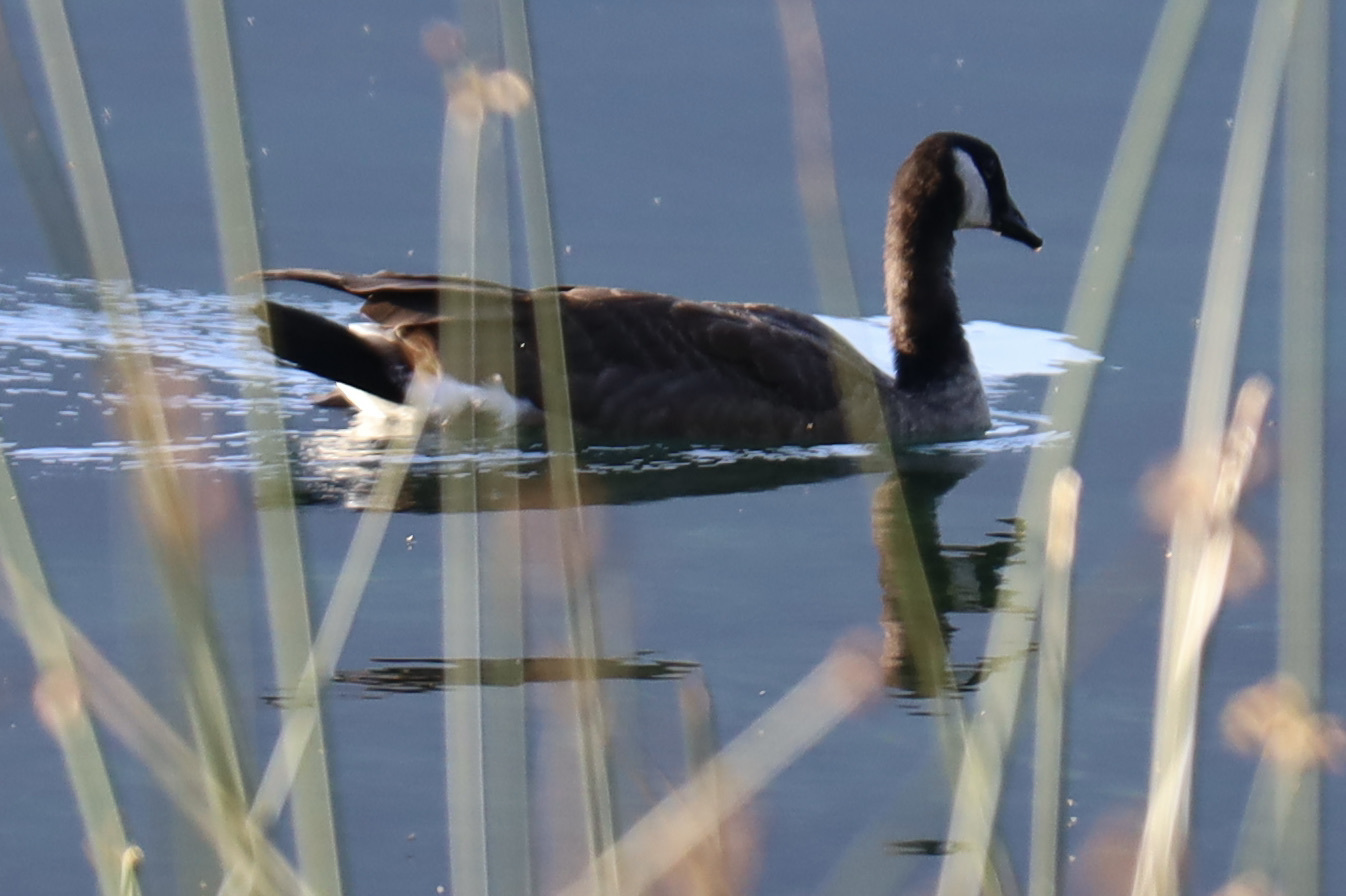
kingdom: Animalia
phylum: Chordata
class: Aves
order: Anseriformes
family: Anatidae
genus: Branta
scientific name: Branta canadensis
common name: Canada goose
